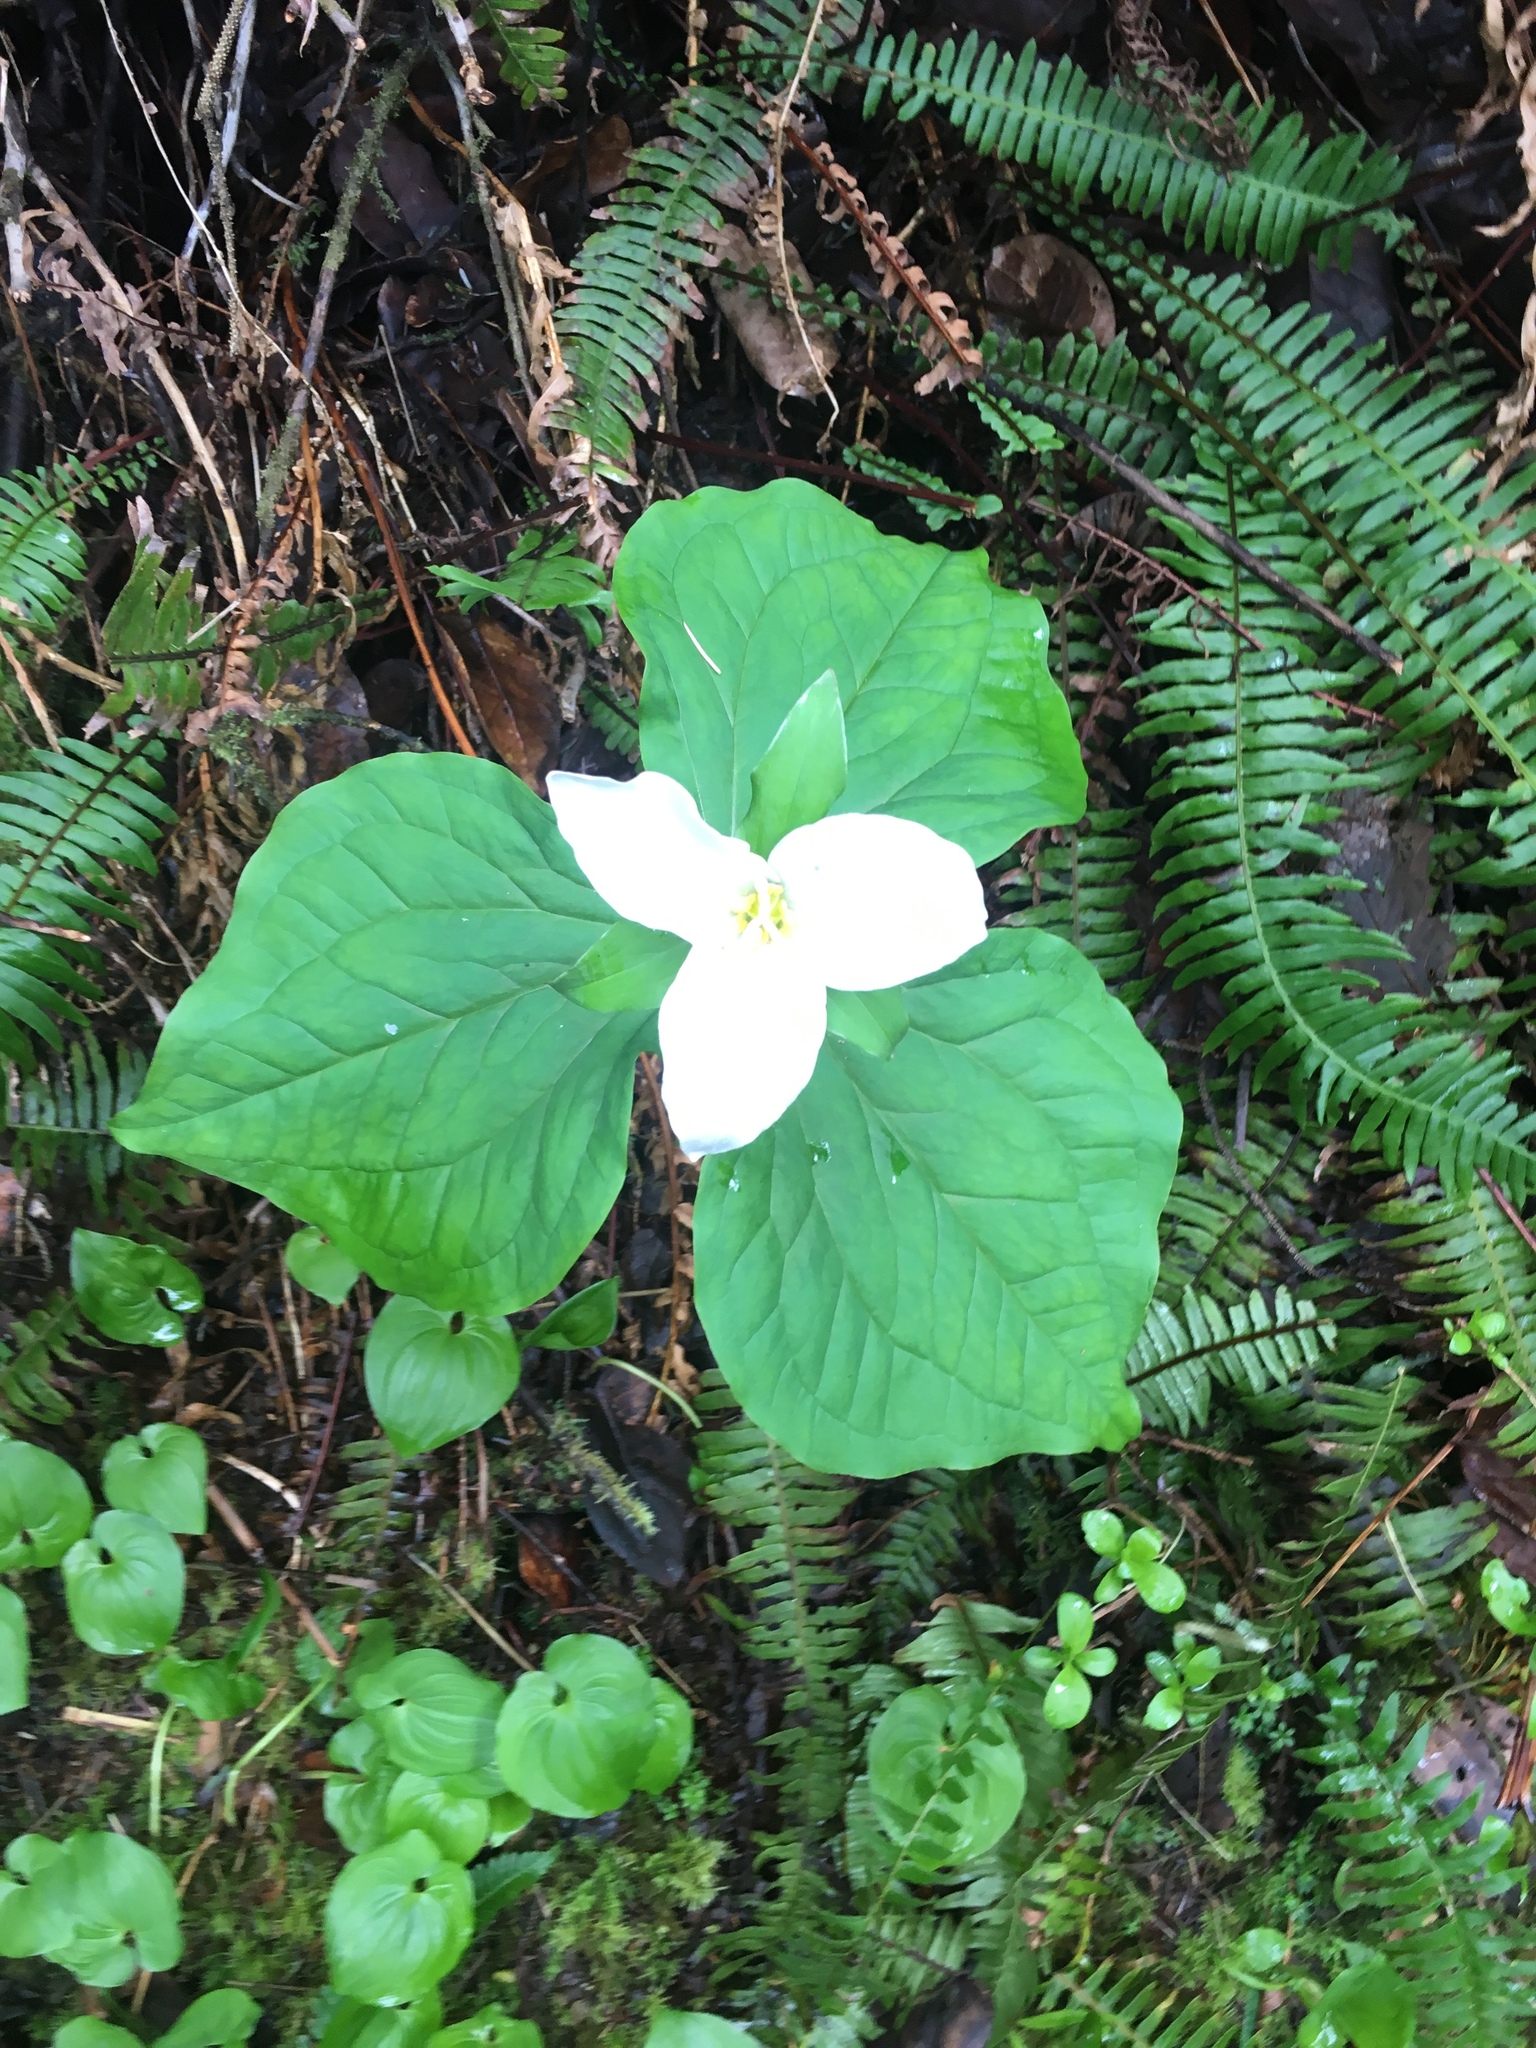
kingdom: Plantae
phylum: Tracheophyta
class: Liliopsida
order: Liliales
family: Melanthiaceae
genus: Trillium
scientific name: Trillium ovatum
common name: Pacific trillium
